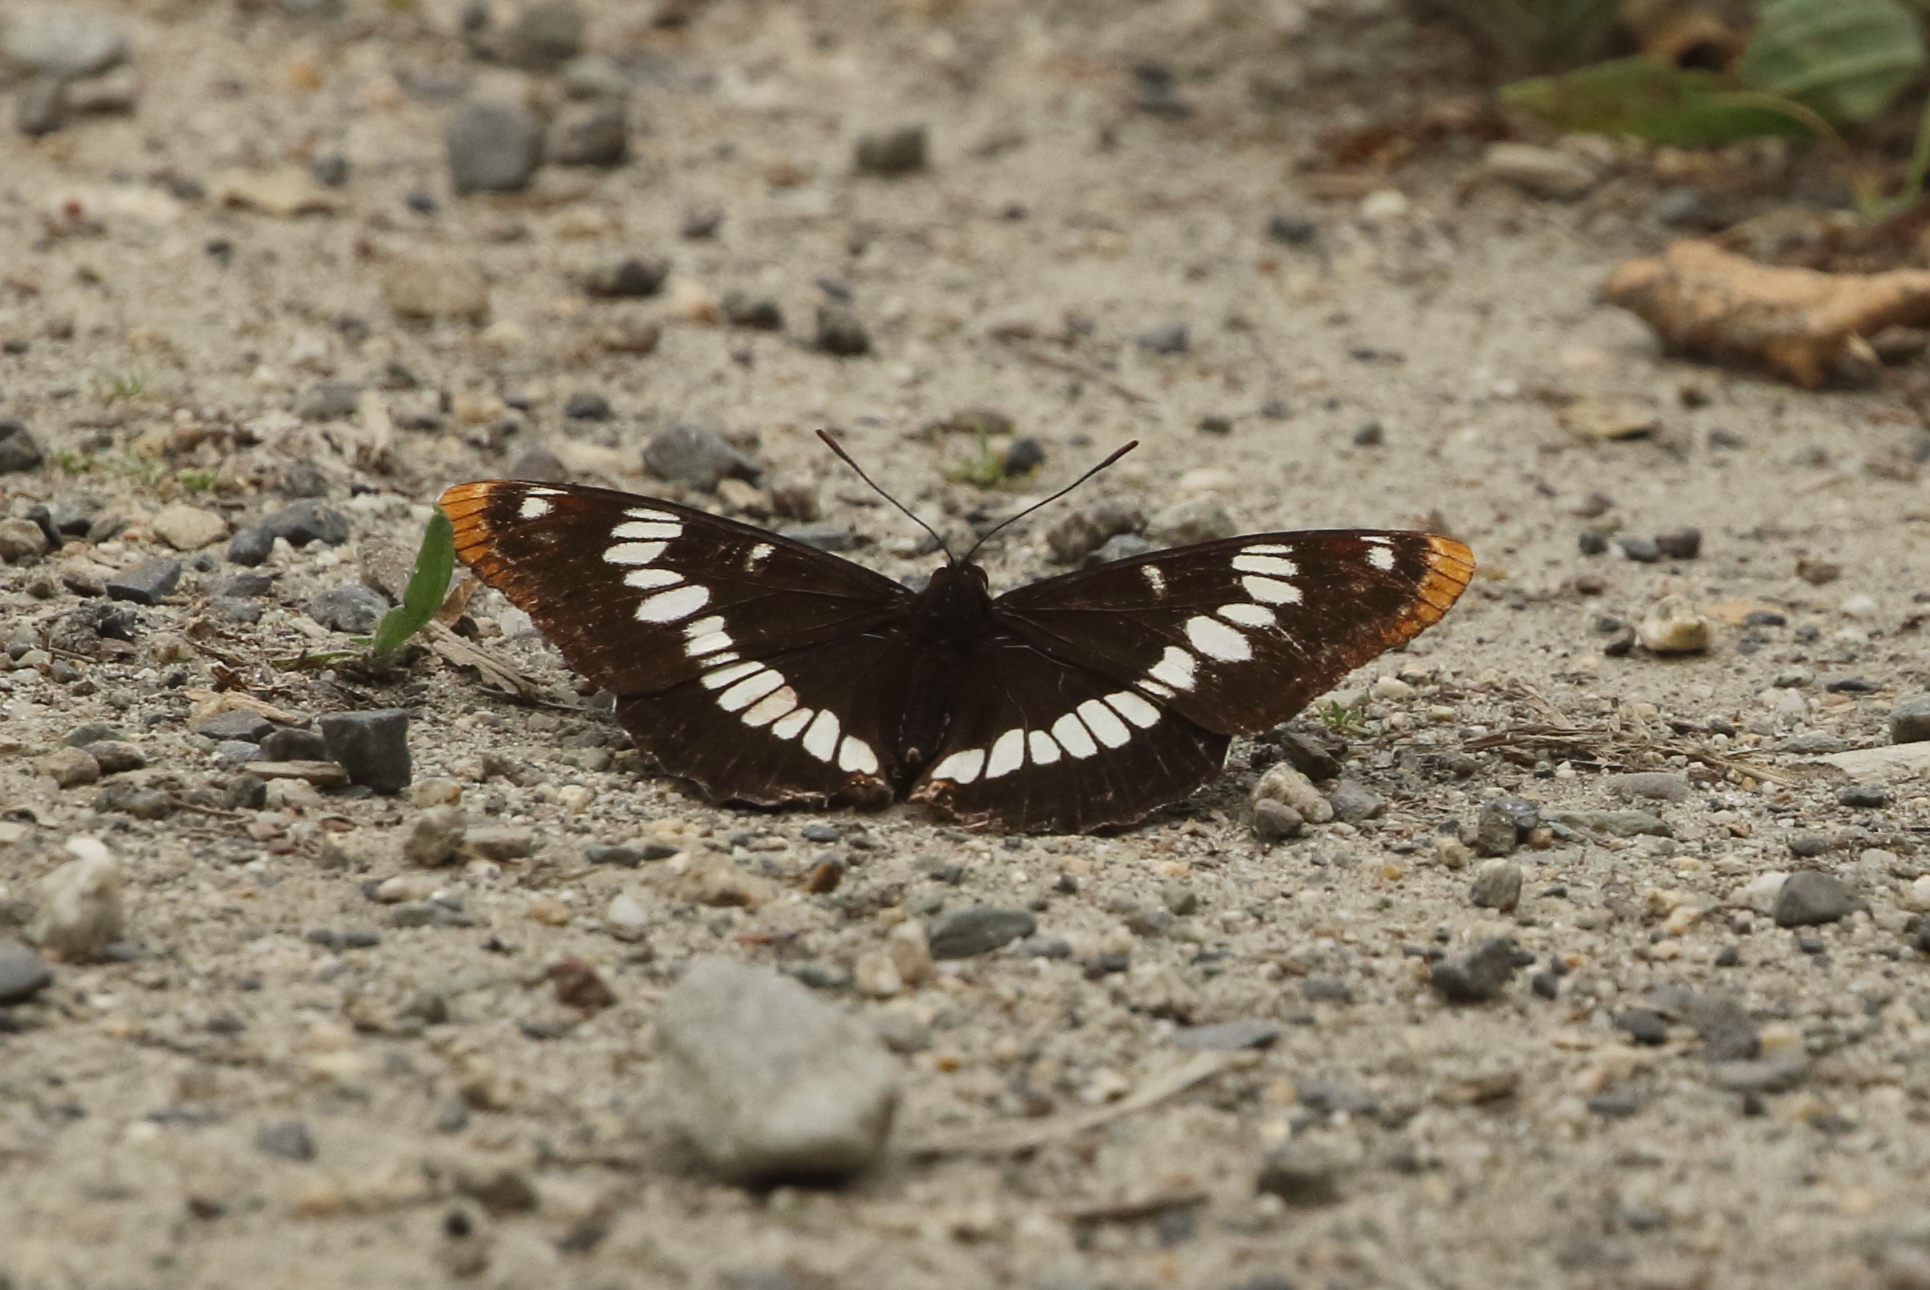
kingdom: Animalia
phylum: Arthropoda
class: Insecta
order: Lepidoptera
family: Nymphalidae
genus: Limenitis
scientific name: Limenitis lorquini
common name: Lorquin's admiral
